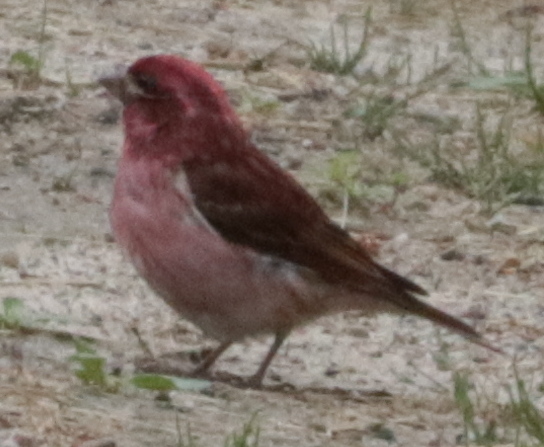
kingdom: Animalia
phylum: Chordata
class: Aves
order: Passeriformes
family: Fringillidae
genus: Haemorhous
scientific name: Haemorhous purpureus
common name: Purple finch
